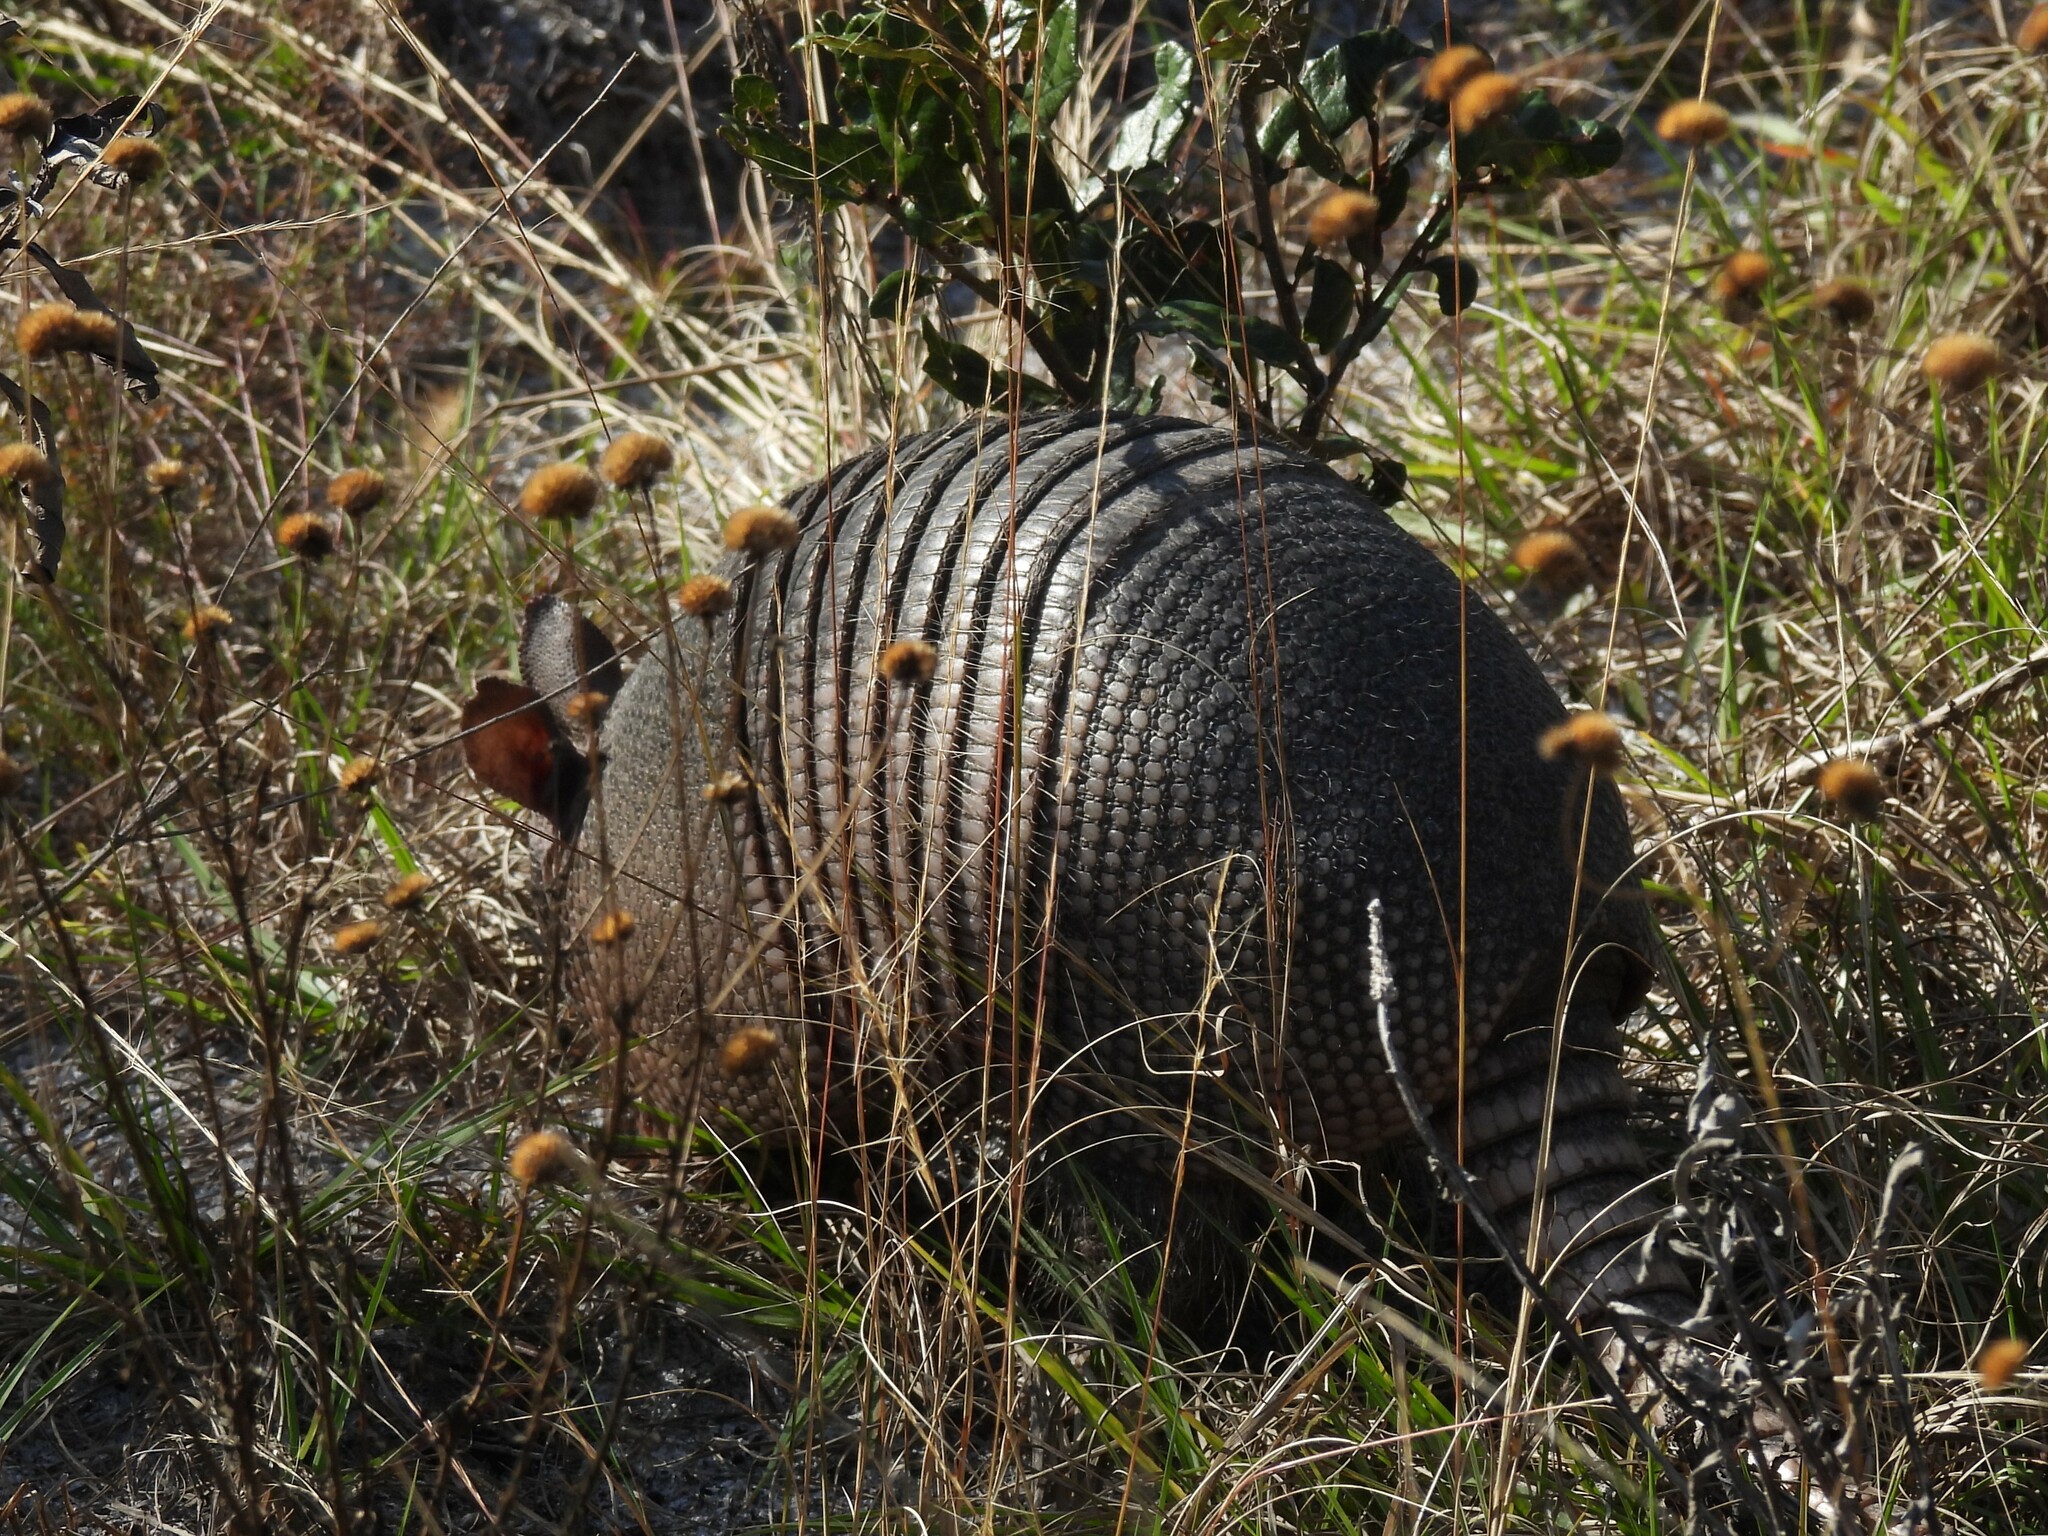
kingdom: Animalia
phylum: Chordata
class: Mammalia
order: Cingulata
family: Dasypodidae
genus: Dasypus
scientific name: Dasypus novemcinctus
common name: Nine-banded armadillo
